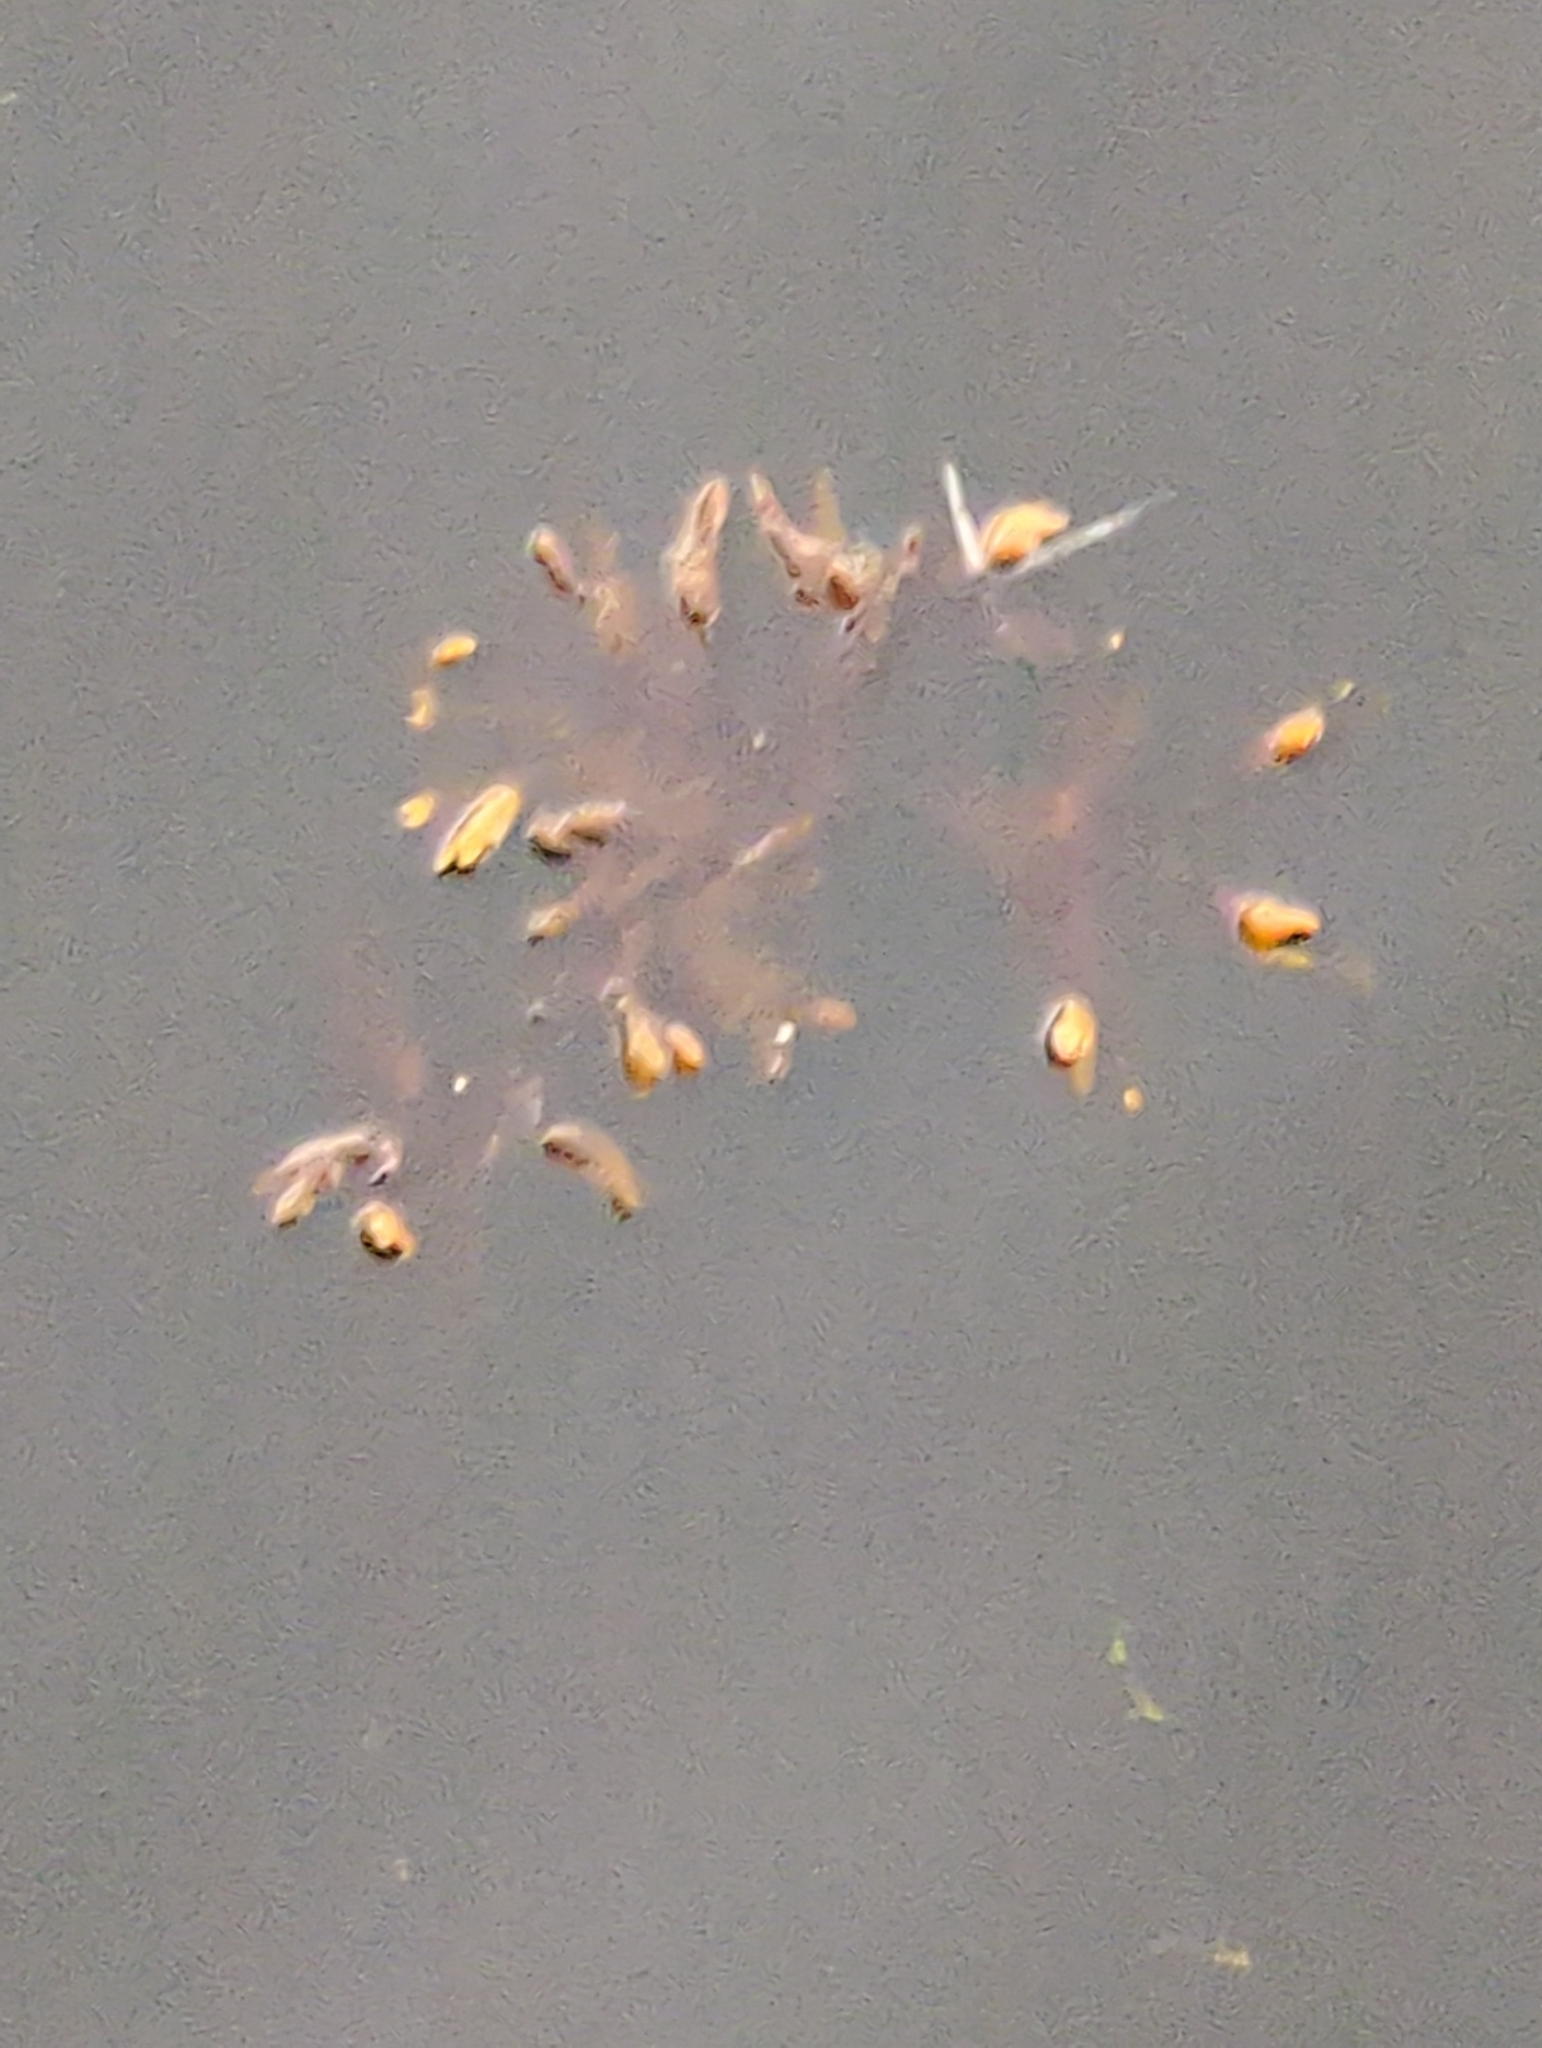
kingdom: Chromista
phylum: Ochrophyta
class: Phaeophyceae
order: Fucales
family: Fucaceae
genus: Fucus
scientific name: Fucus distichus
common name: Rockweed
